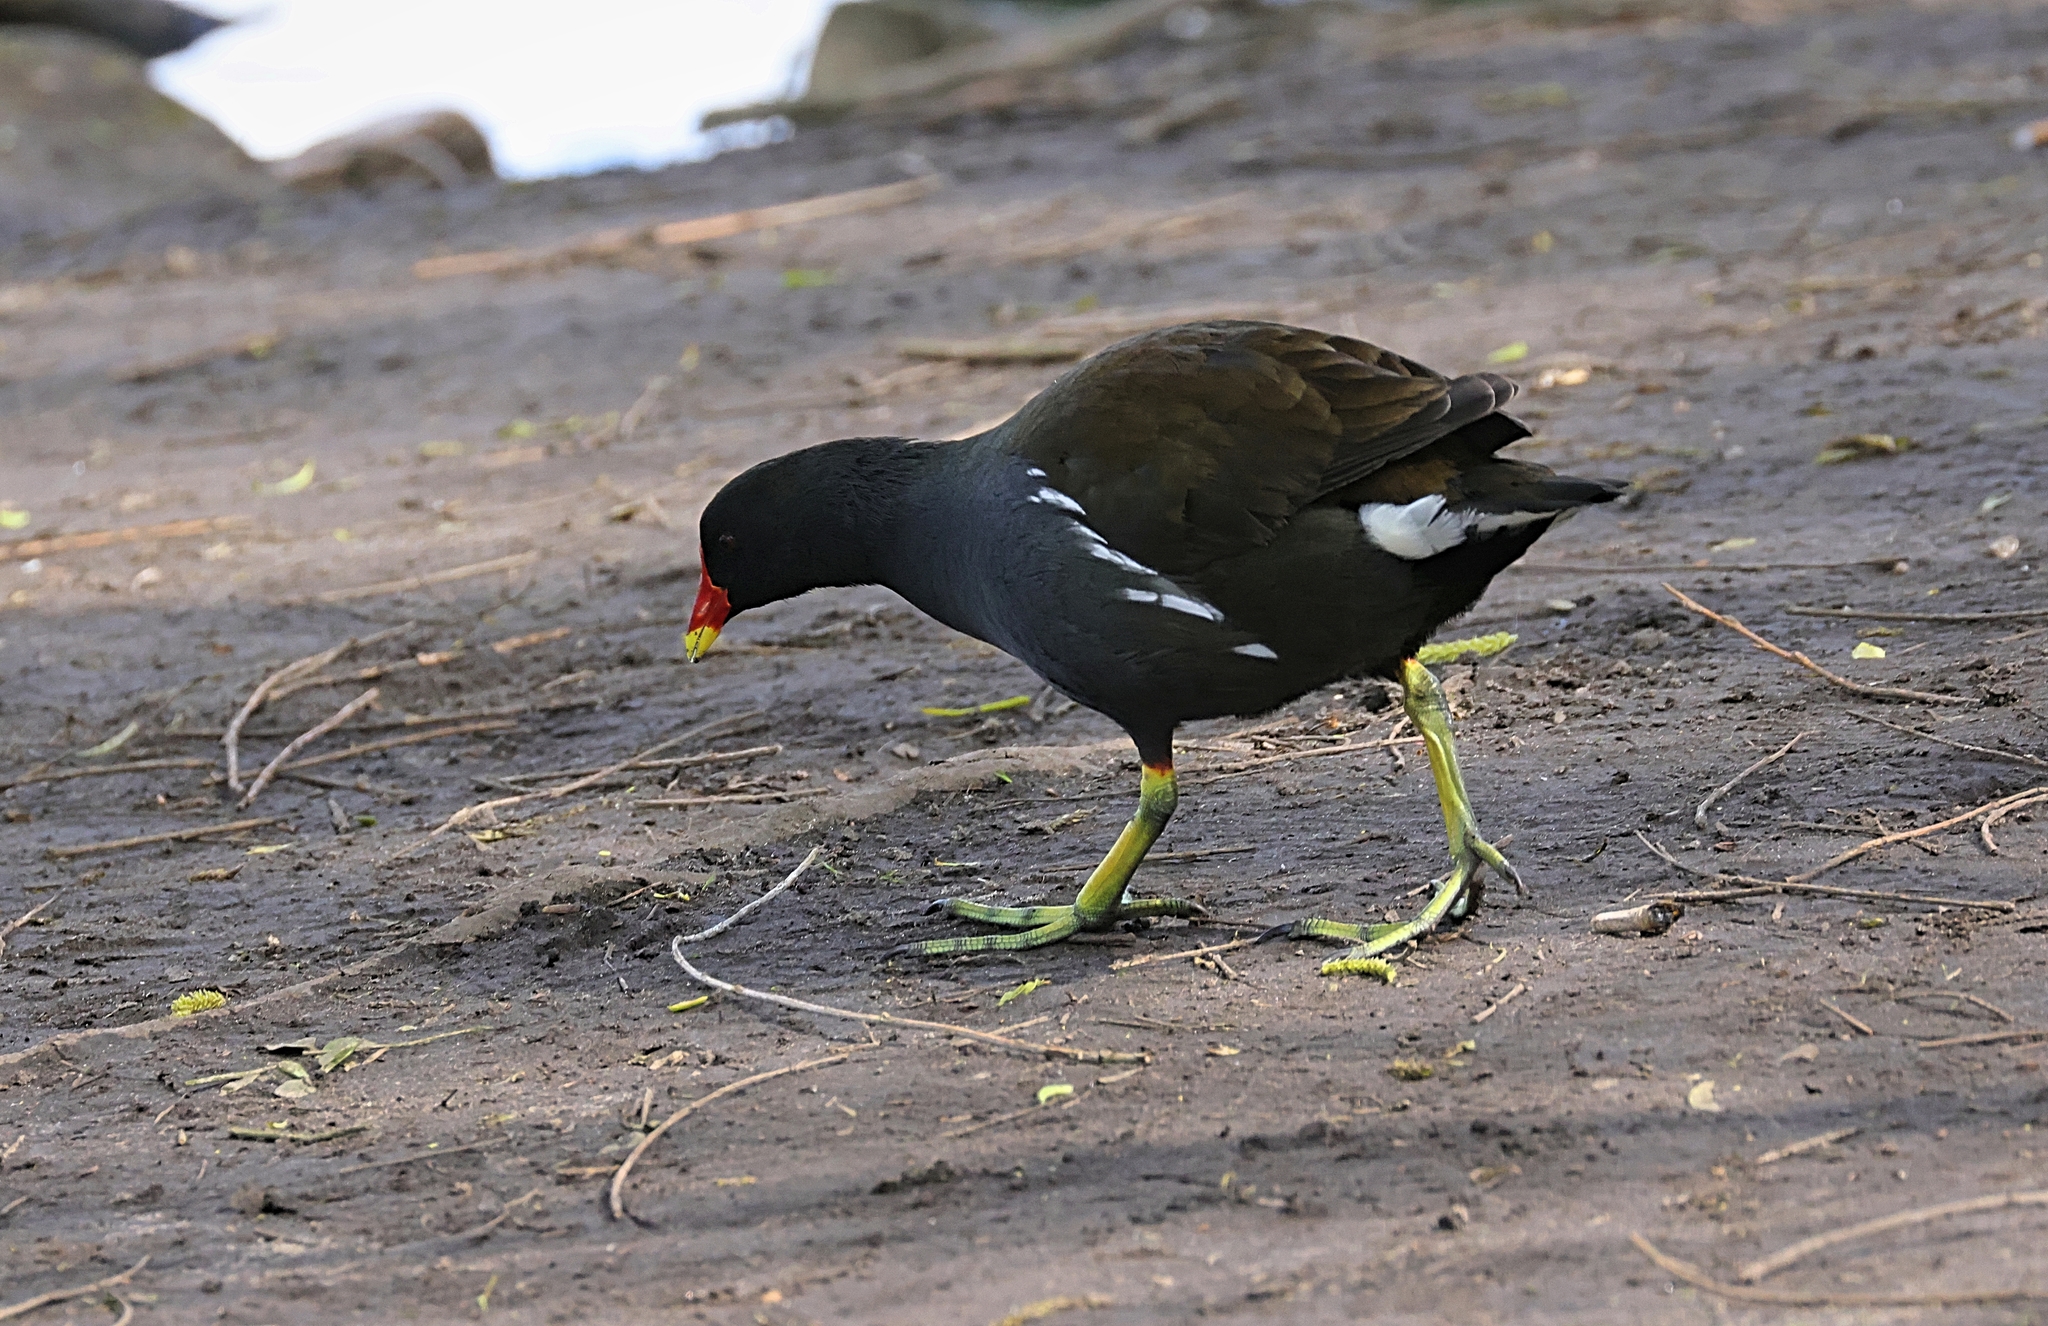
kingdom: Animalia
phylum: Chordata
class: Aves
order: Gruiformes
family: Rallidae
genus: Gallinula
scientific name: Gallinula chloropus
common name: Common moorhen
